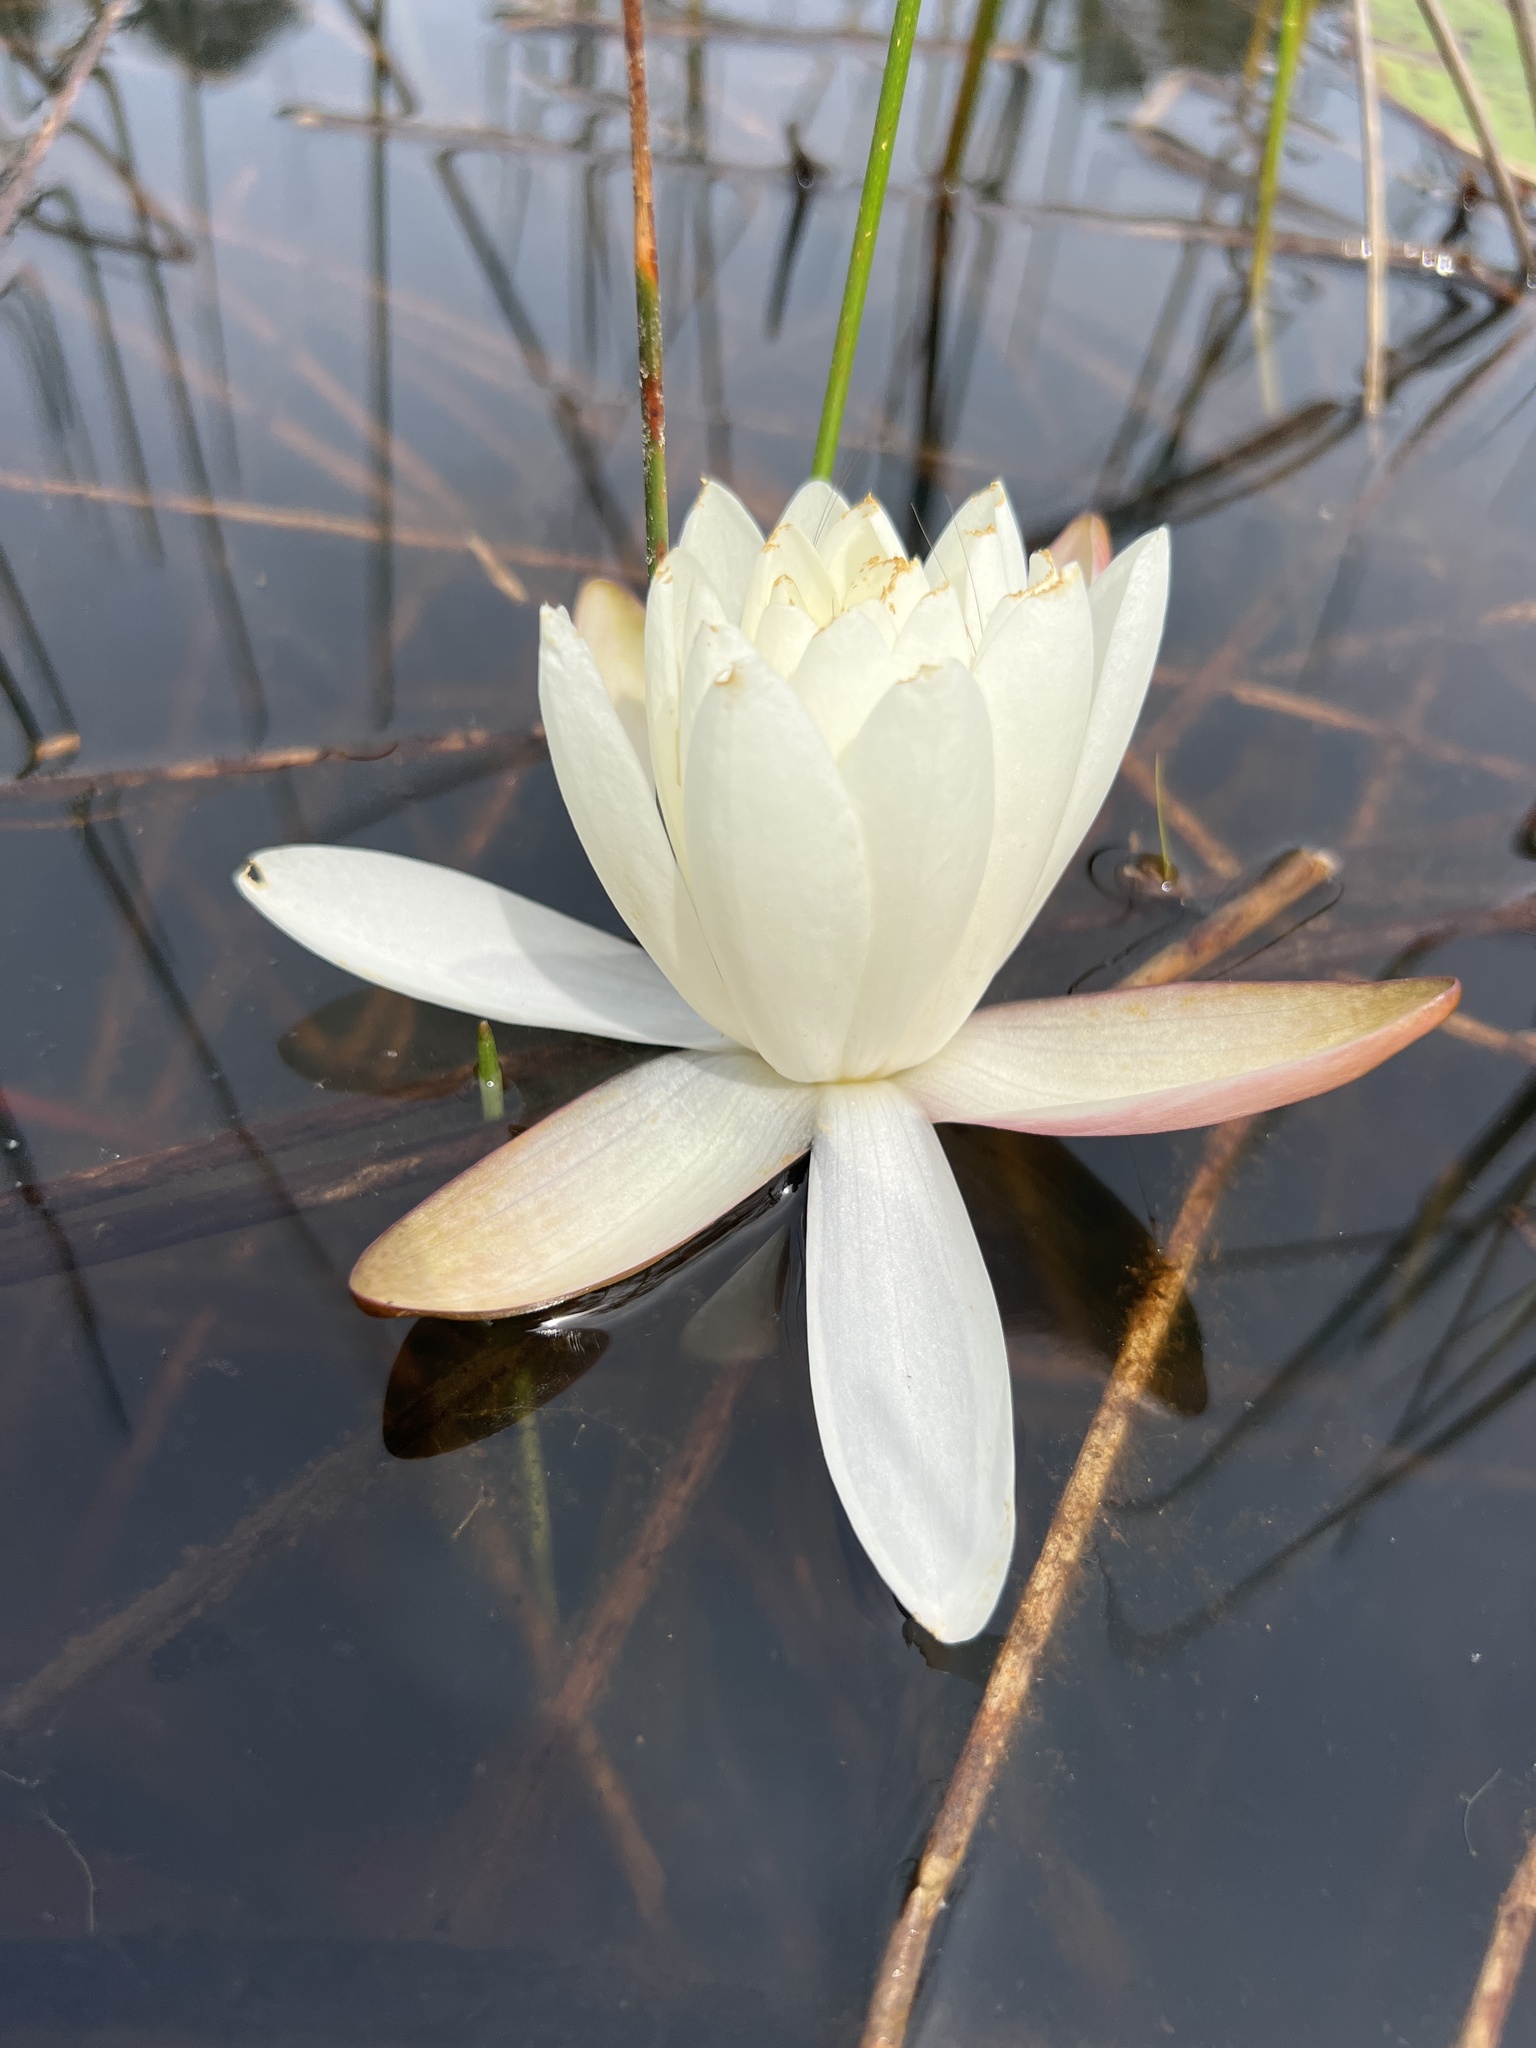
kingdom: Plantae
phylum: Tracheophyta
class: Magnoliopsida
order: Nymphaeales
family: Nymphaeaceae
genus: Nymphaea
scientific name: Nymphaea odorata
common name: Fragrant water-lily
